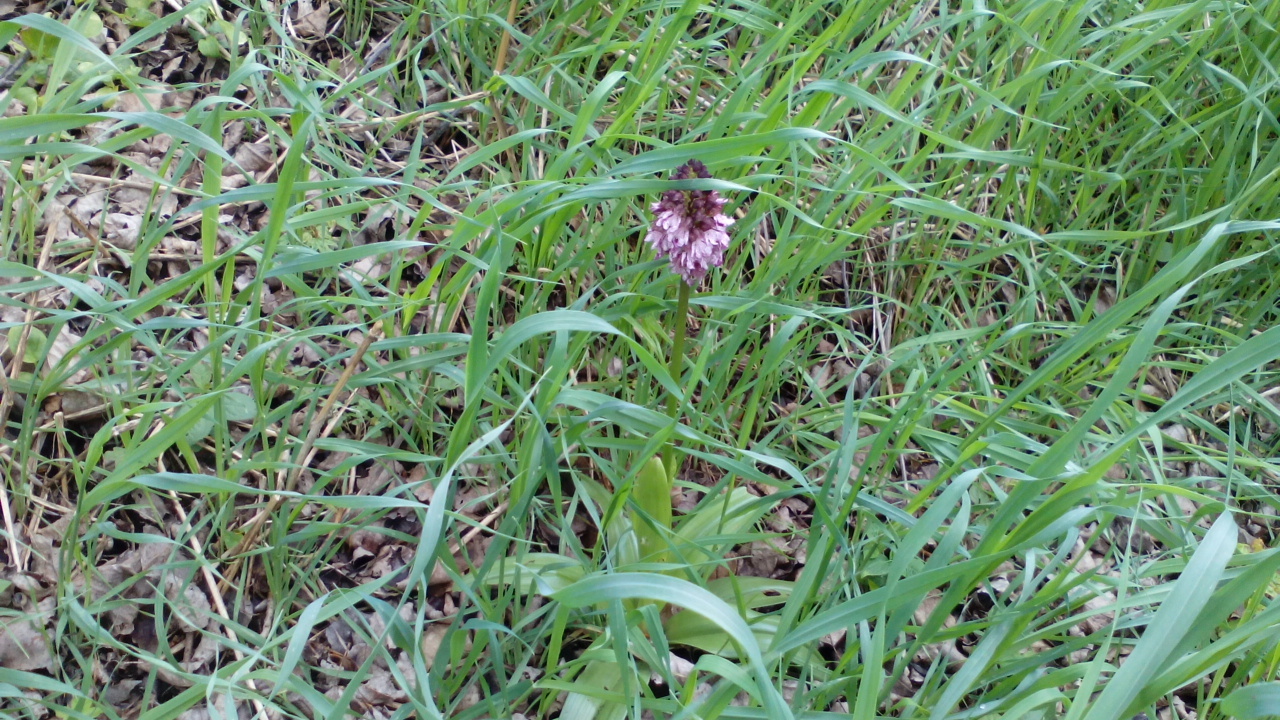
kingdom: Plantae
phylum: Tracheophyta
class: Liliopsida
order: Asparagales
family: Orchidaceae
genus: Orchis
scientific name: Orchis purpurea
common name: Lady orchid
